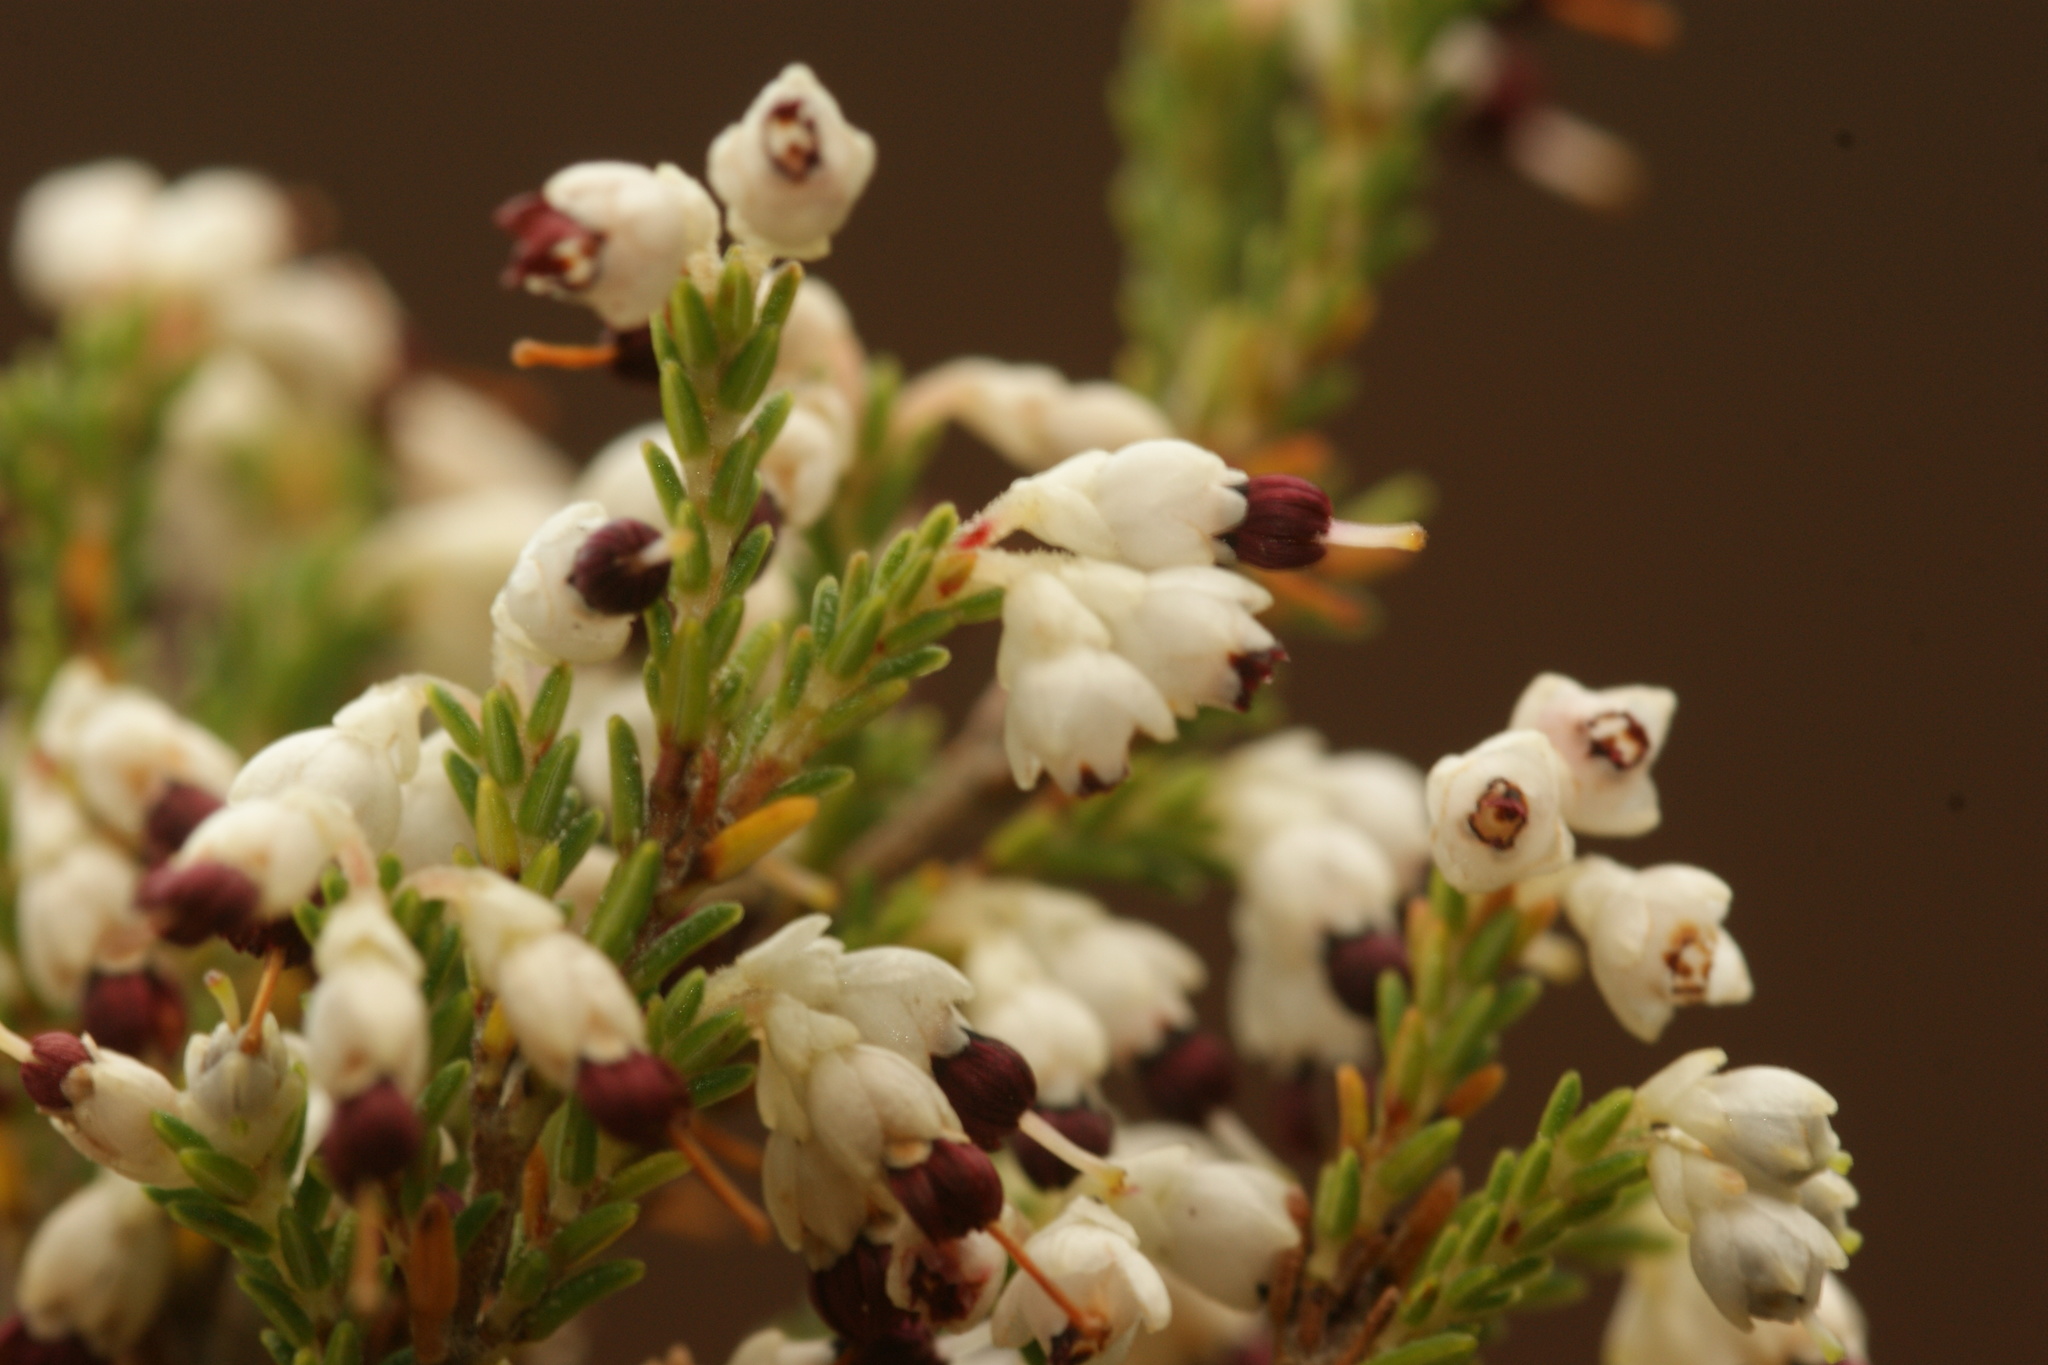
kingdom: Plantae
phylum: Tracheophyta
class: Magnoliopsida
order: Ericales
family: Ericaceae
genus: Erica
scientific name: Erica imbricata
